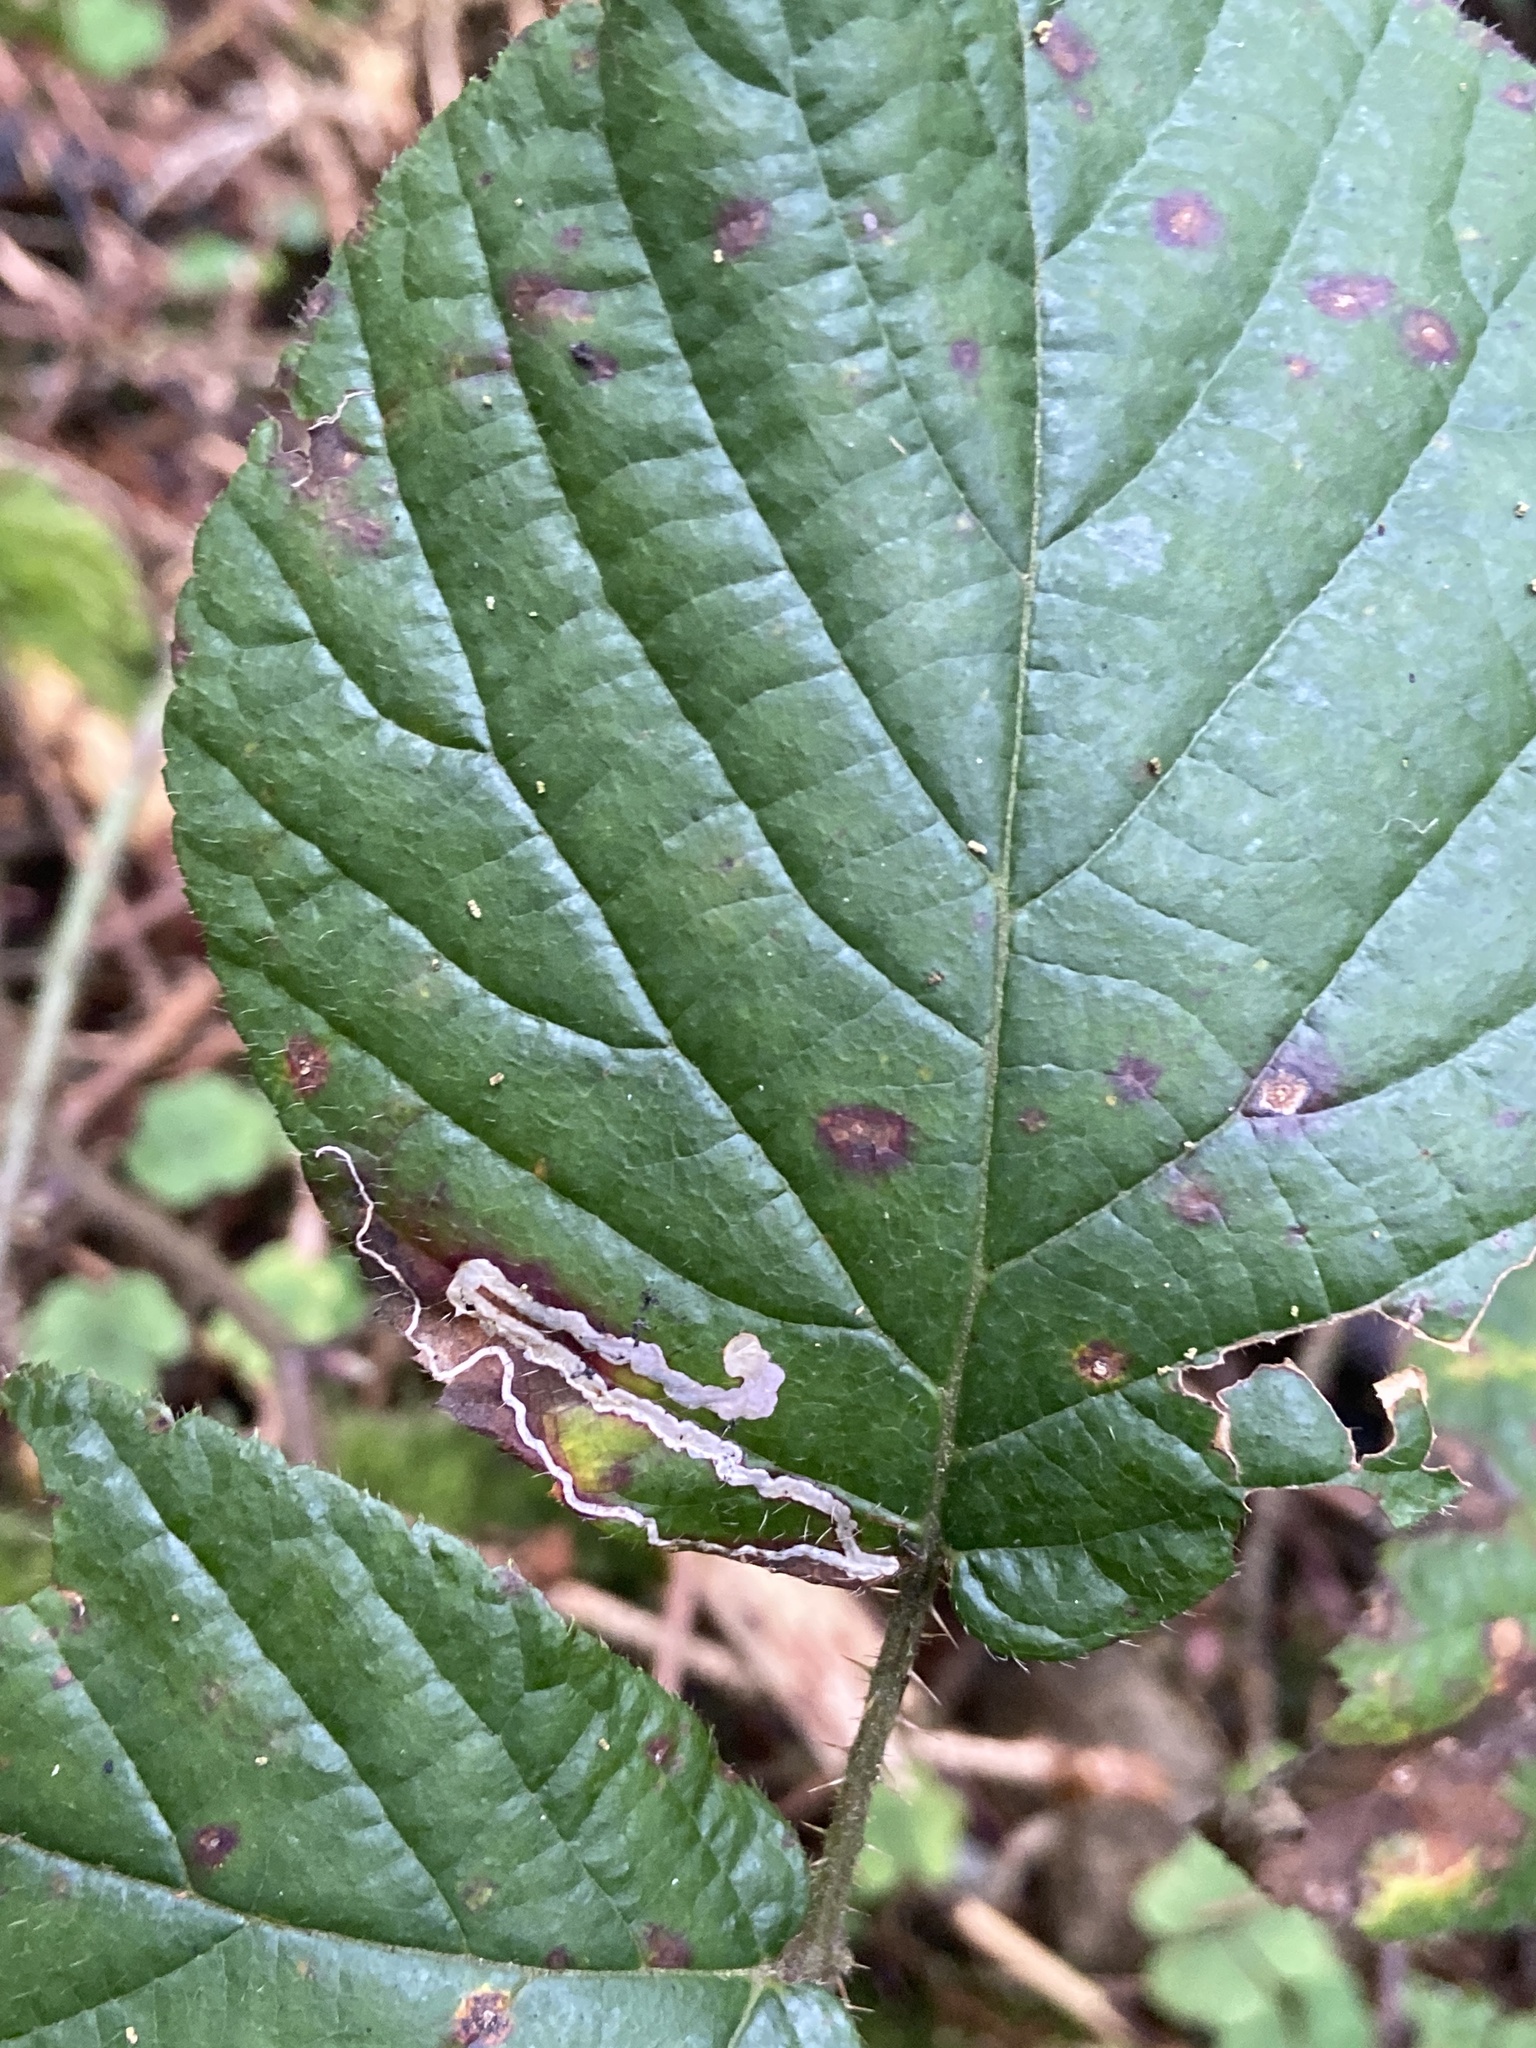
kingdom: Animalia
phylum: Arthropoda
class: Insecta
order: Lepidoptera
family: Nepticulidae
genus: Stigmella
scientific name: Stigmella aurella
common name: Golden pigmy
